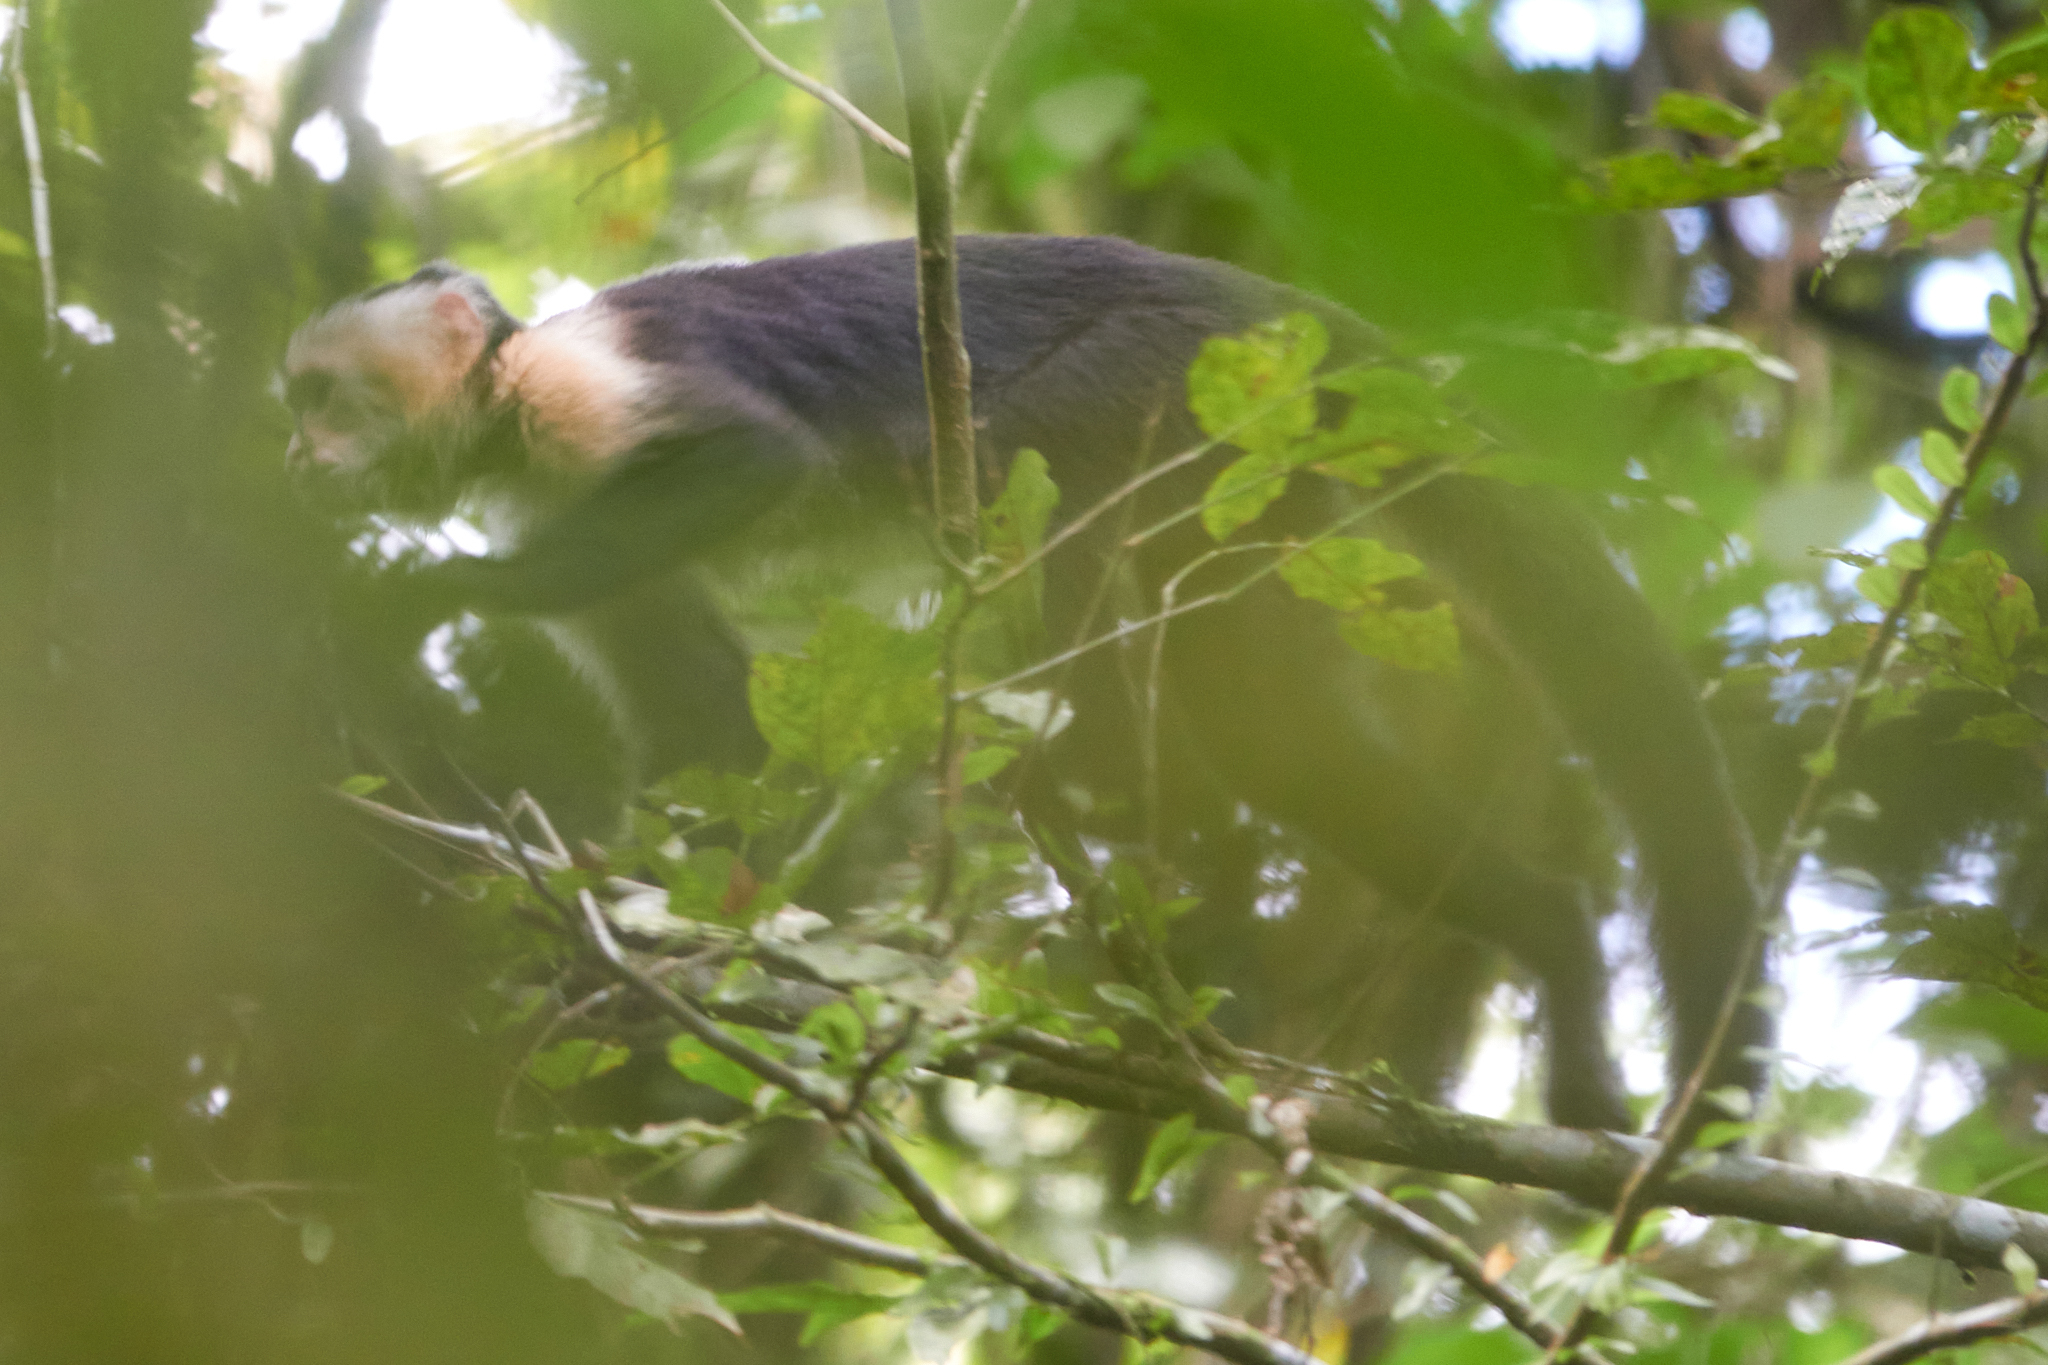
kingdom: Animalia
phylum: Chordata
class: Mammalia
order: Primates
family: Cebidae
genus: Cebus
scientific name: Cebus imitator
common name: Panamanian white-faced capuchin
